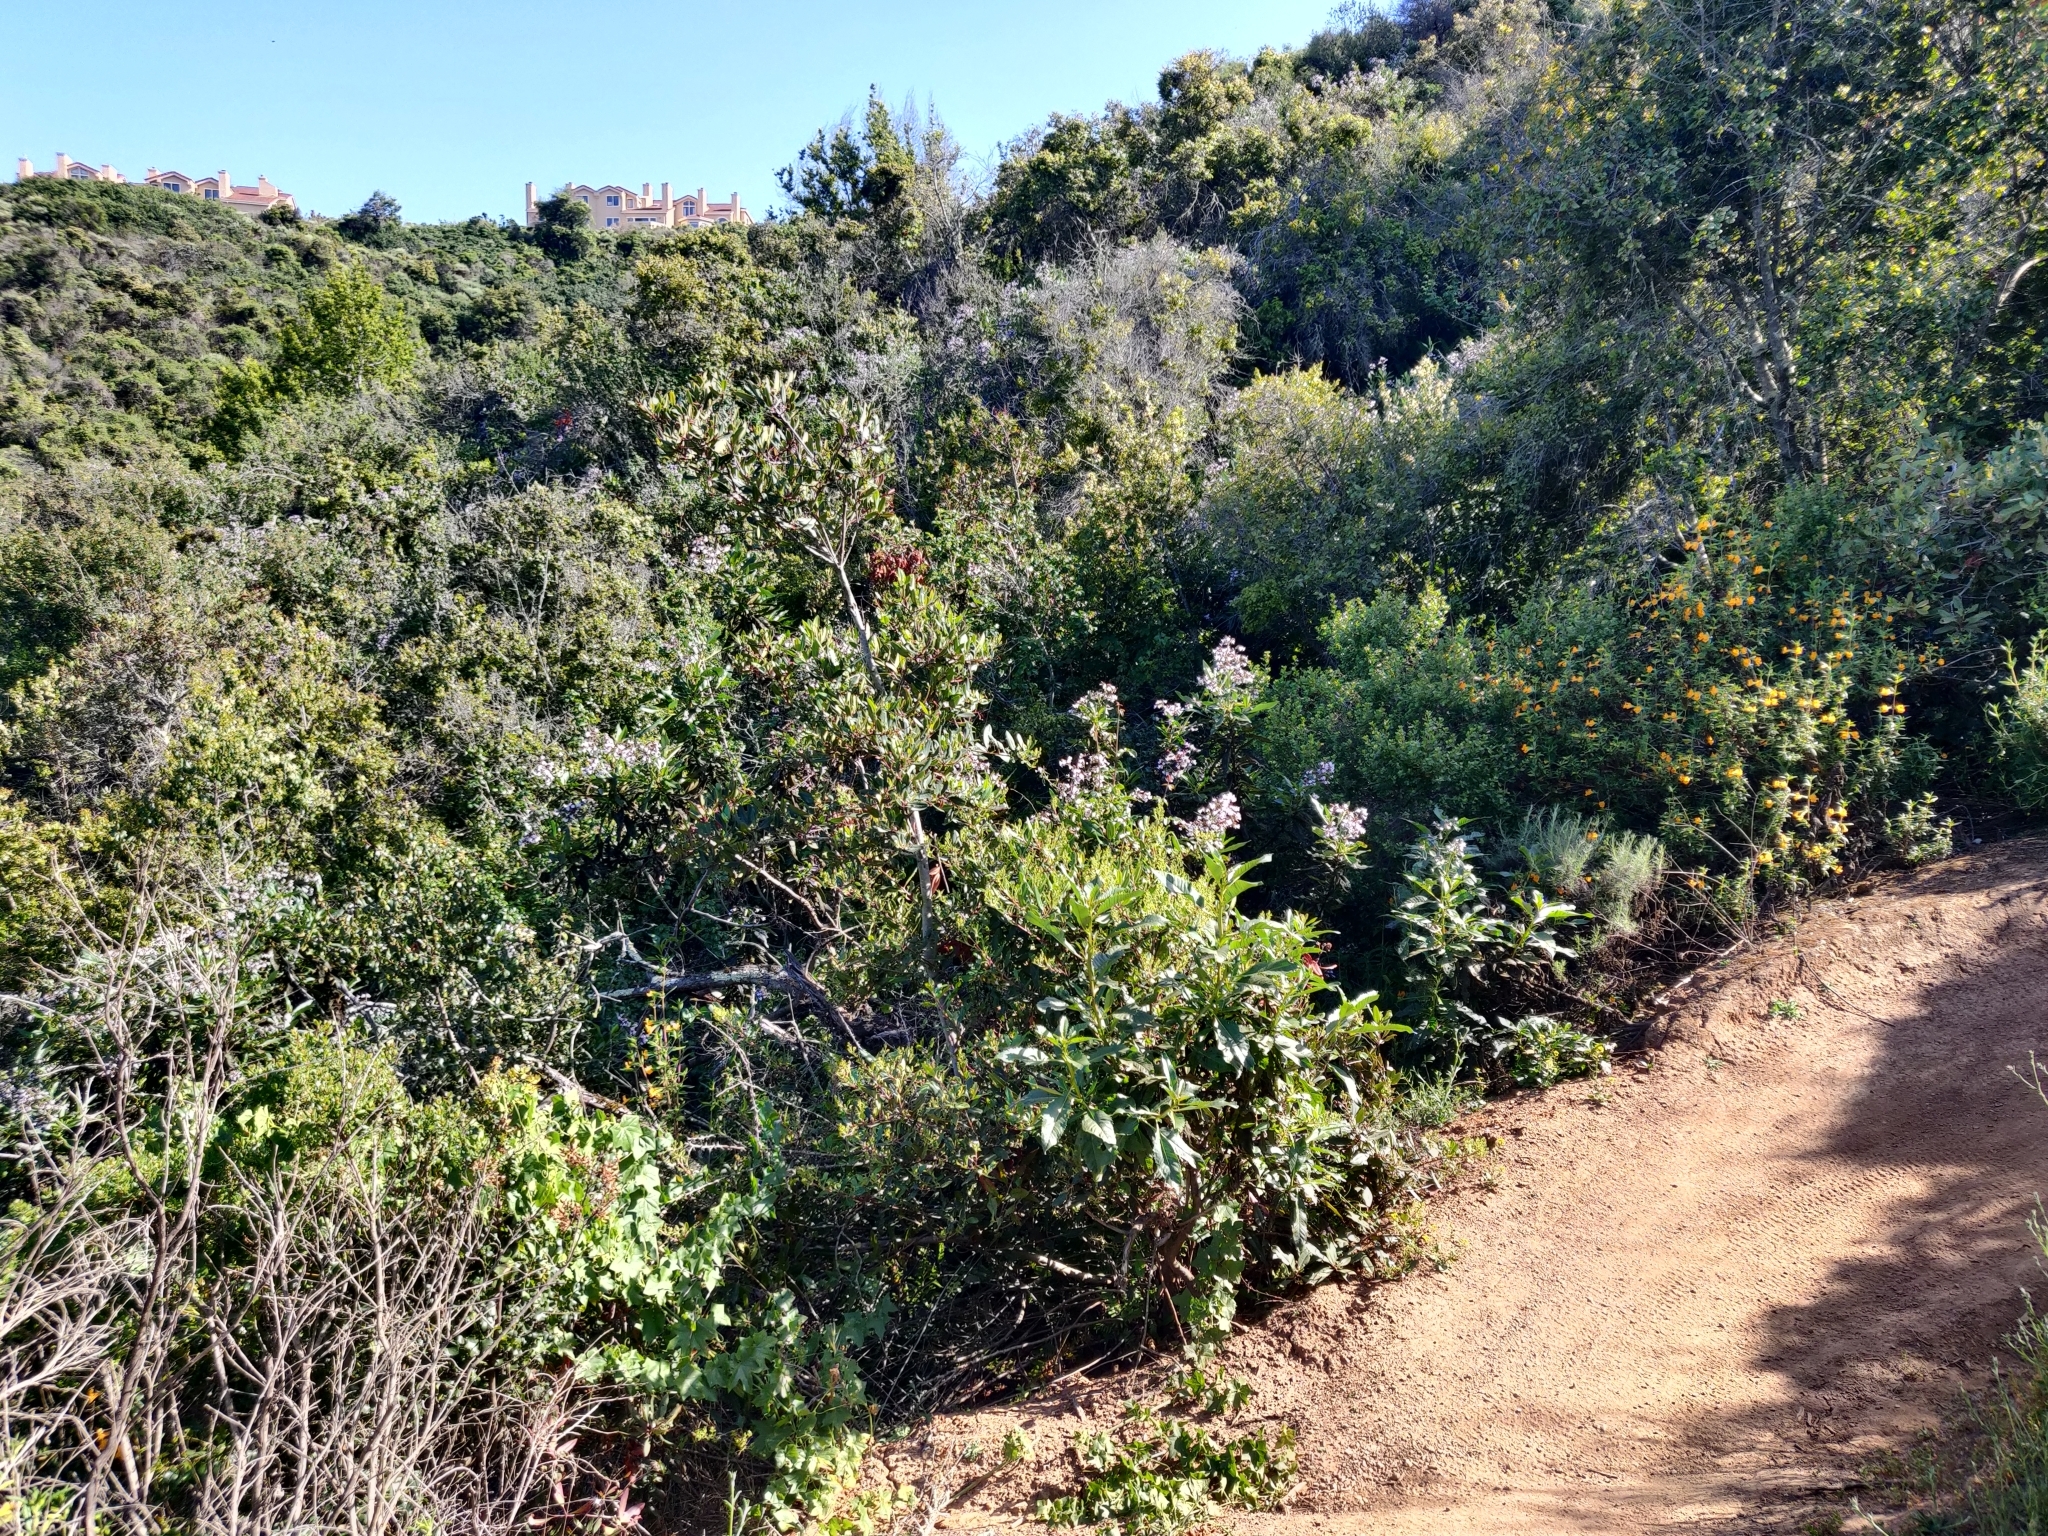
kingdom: Plantae
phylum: Tracheophyta
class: Magnoliopsida
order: Boraginales
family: Namaceae
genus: Eriodictyon
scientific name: Eriodictyon californicum
